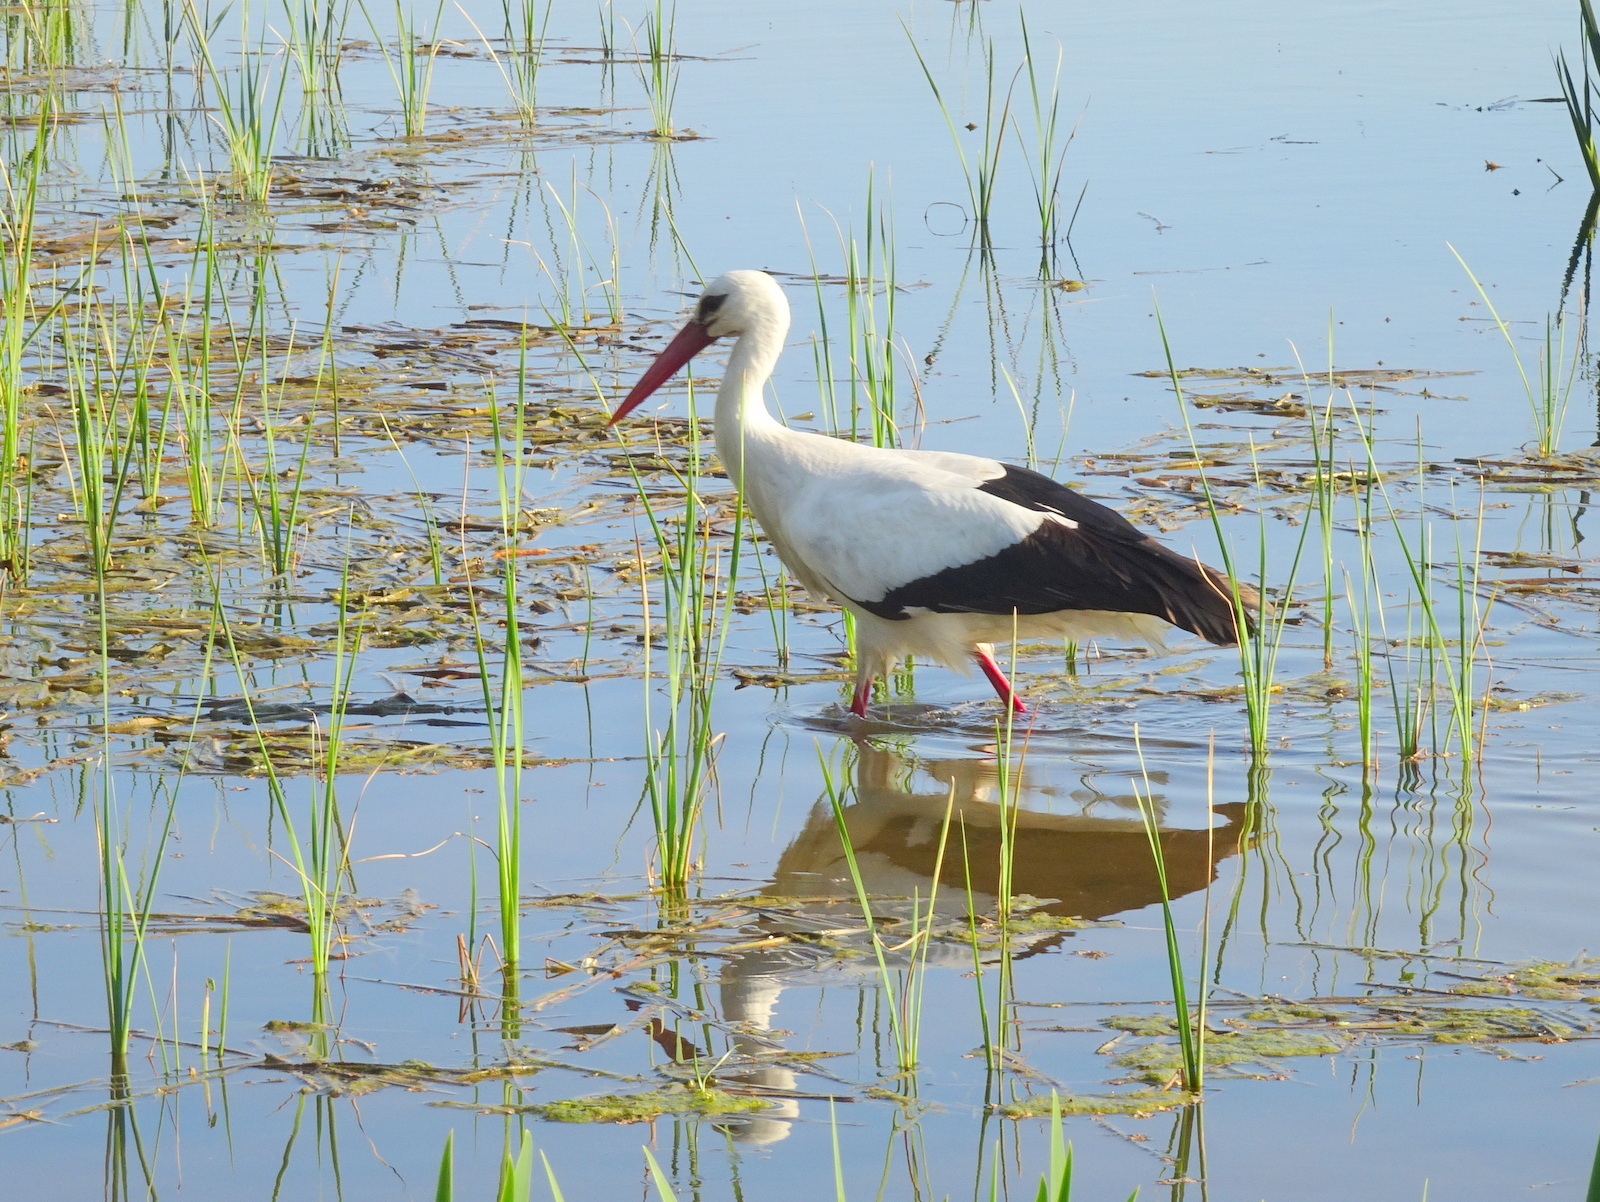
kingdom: Animalia
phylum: Chordata
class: Aves
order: Ciconiiformes
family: Ciconiidae
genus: Ciconia
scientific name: Ciconia ciconia
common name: White stork
